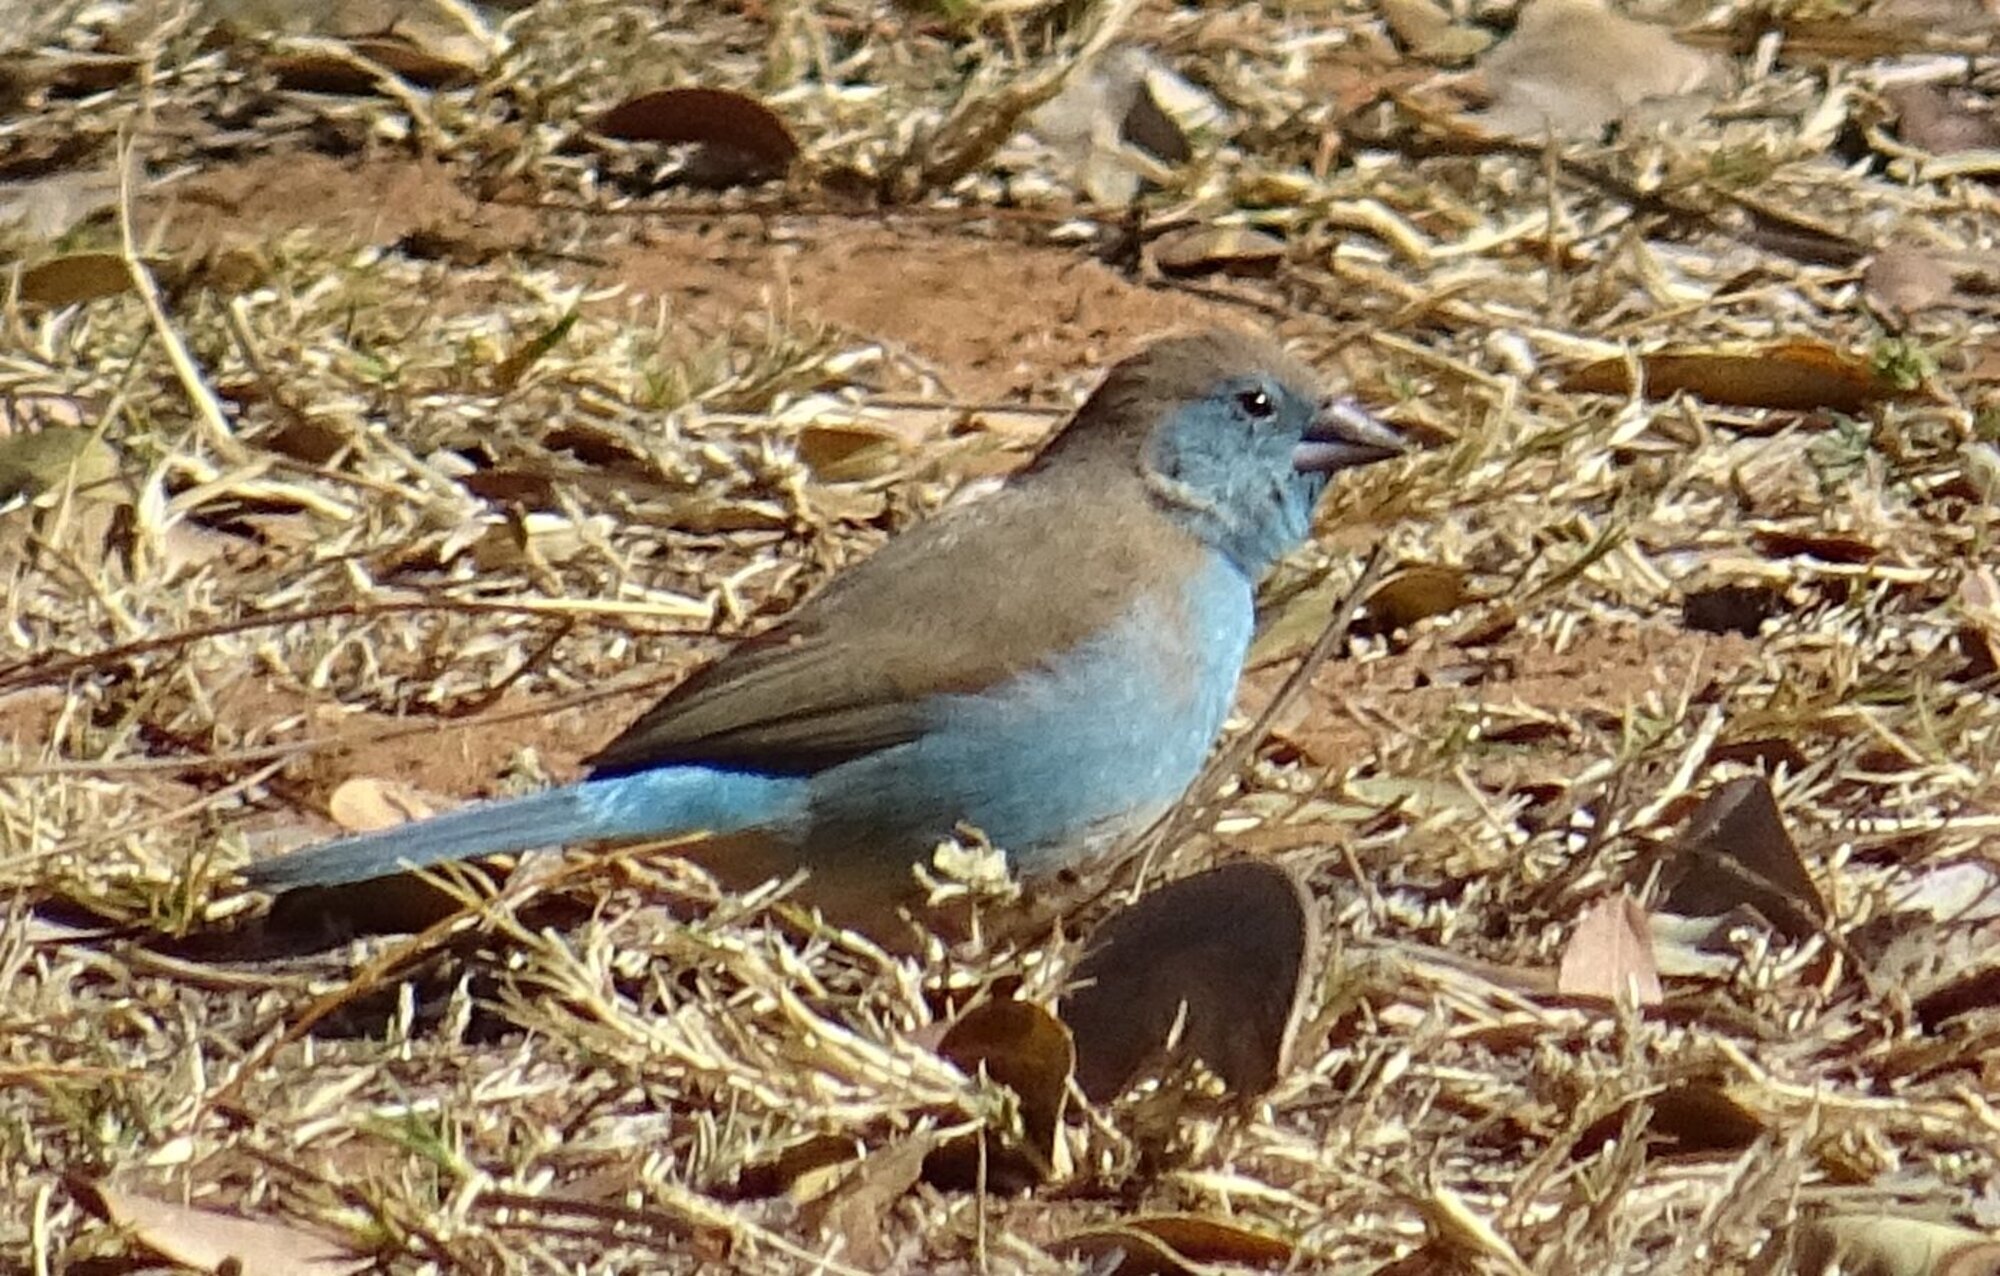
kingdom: Animalia
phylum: Chordata
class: Aves
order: Passeriformes
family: Estrildidae
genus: Uraeginthus
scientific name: Uraeginthus angolensis
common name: Blue waxbill
